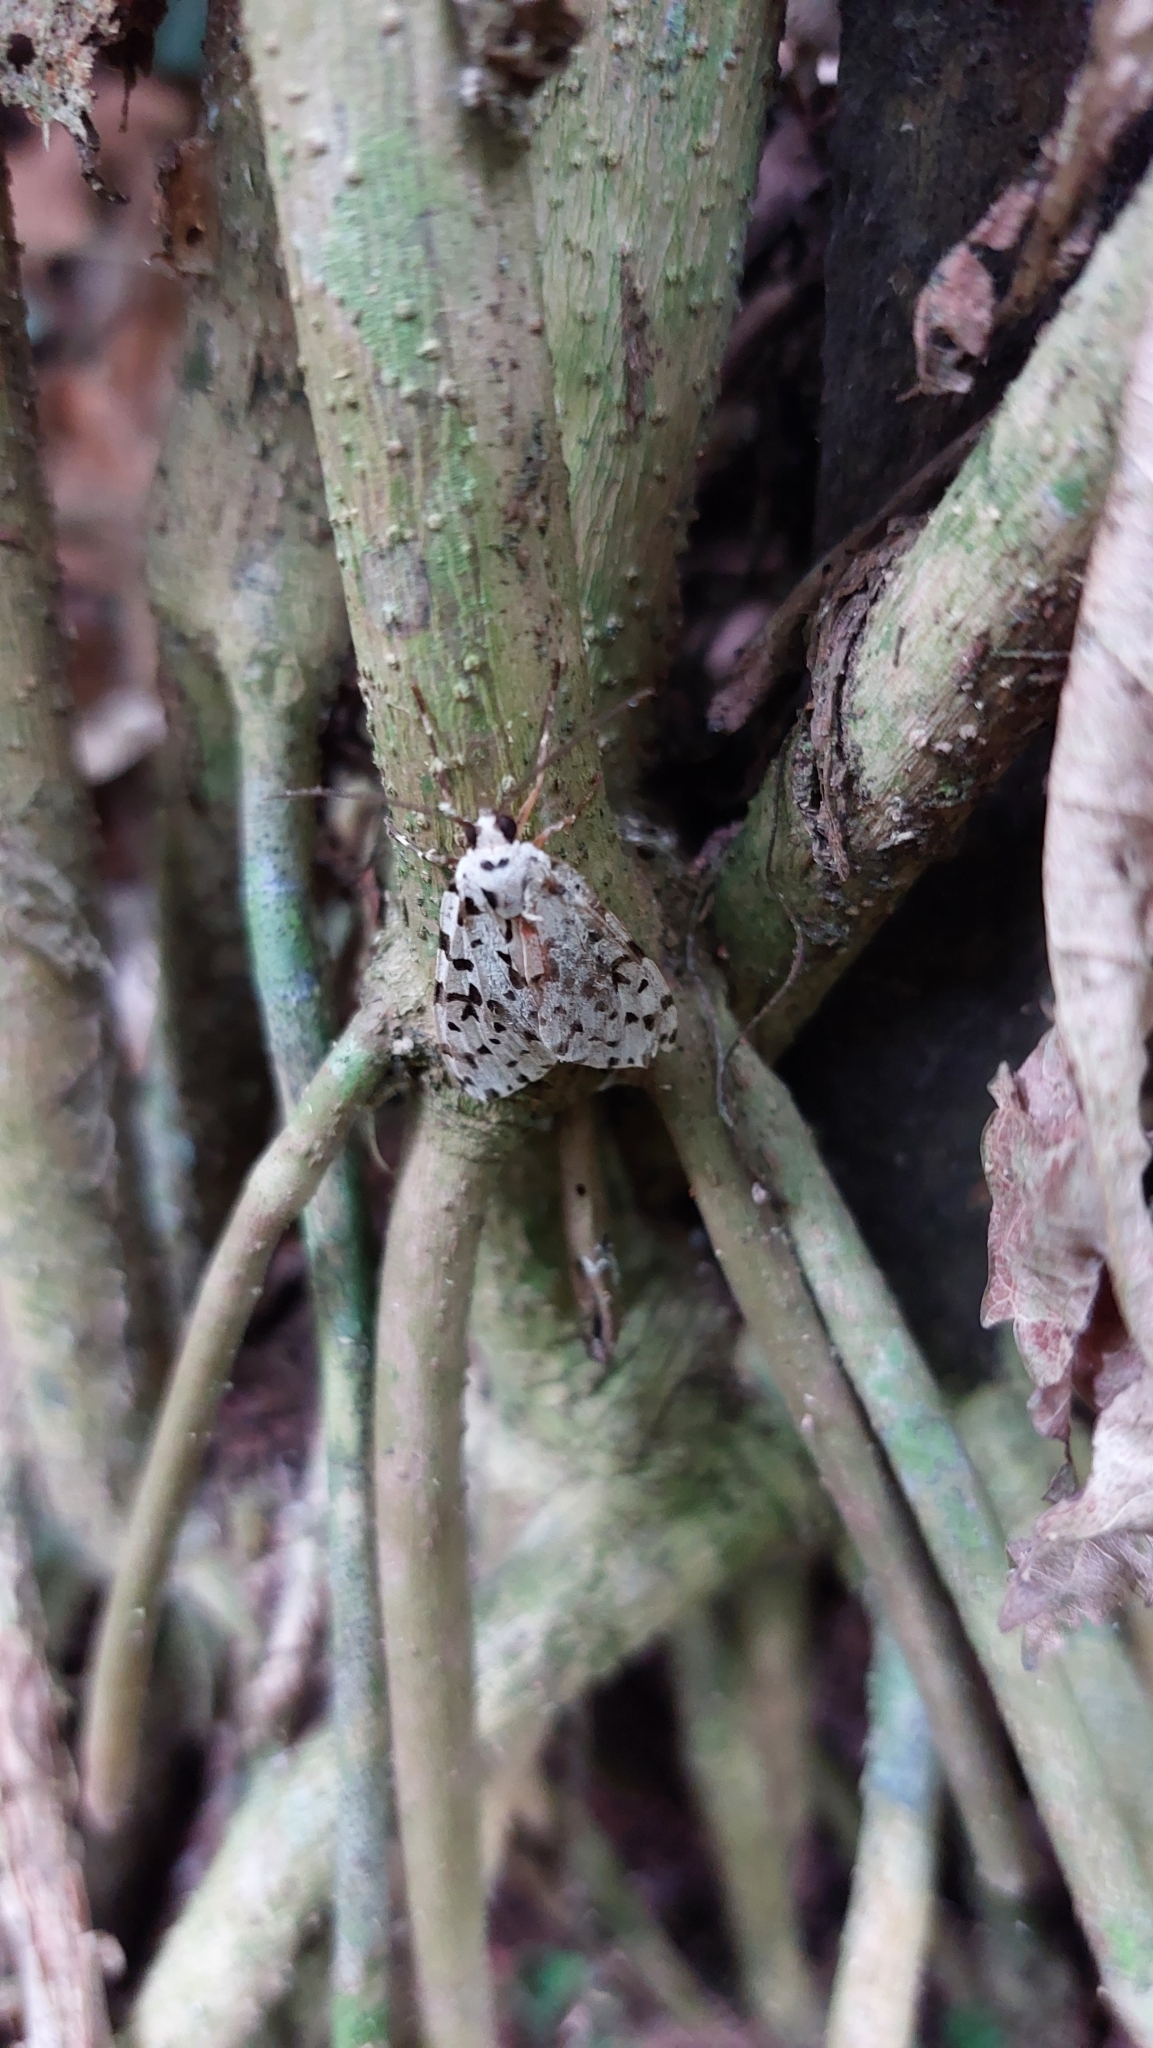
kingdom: Animalia
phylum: Arthropoda
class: Insecta
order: Lepidoptera
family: Erebidae
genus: Eucereon
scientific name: Eucereon punctata
